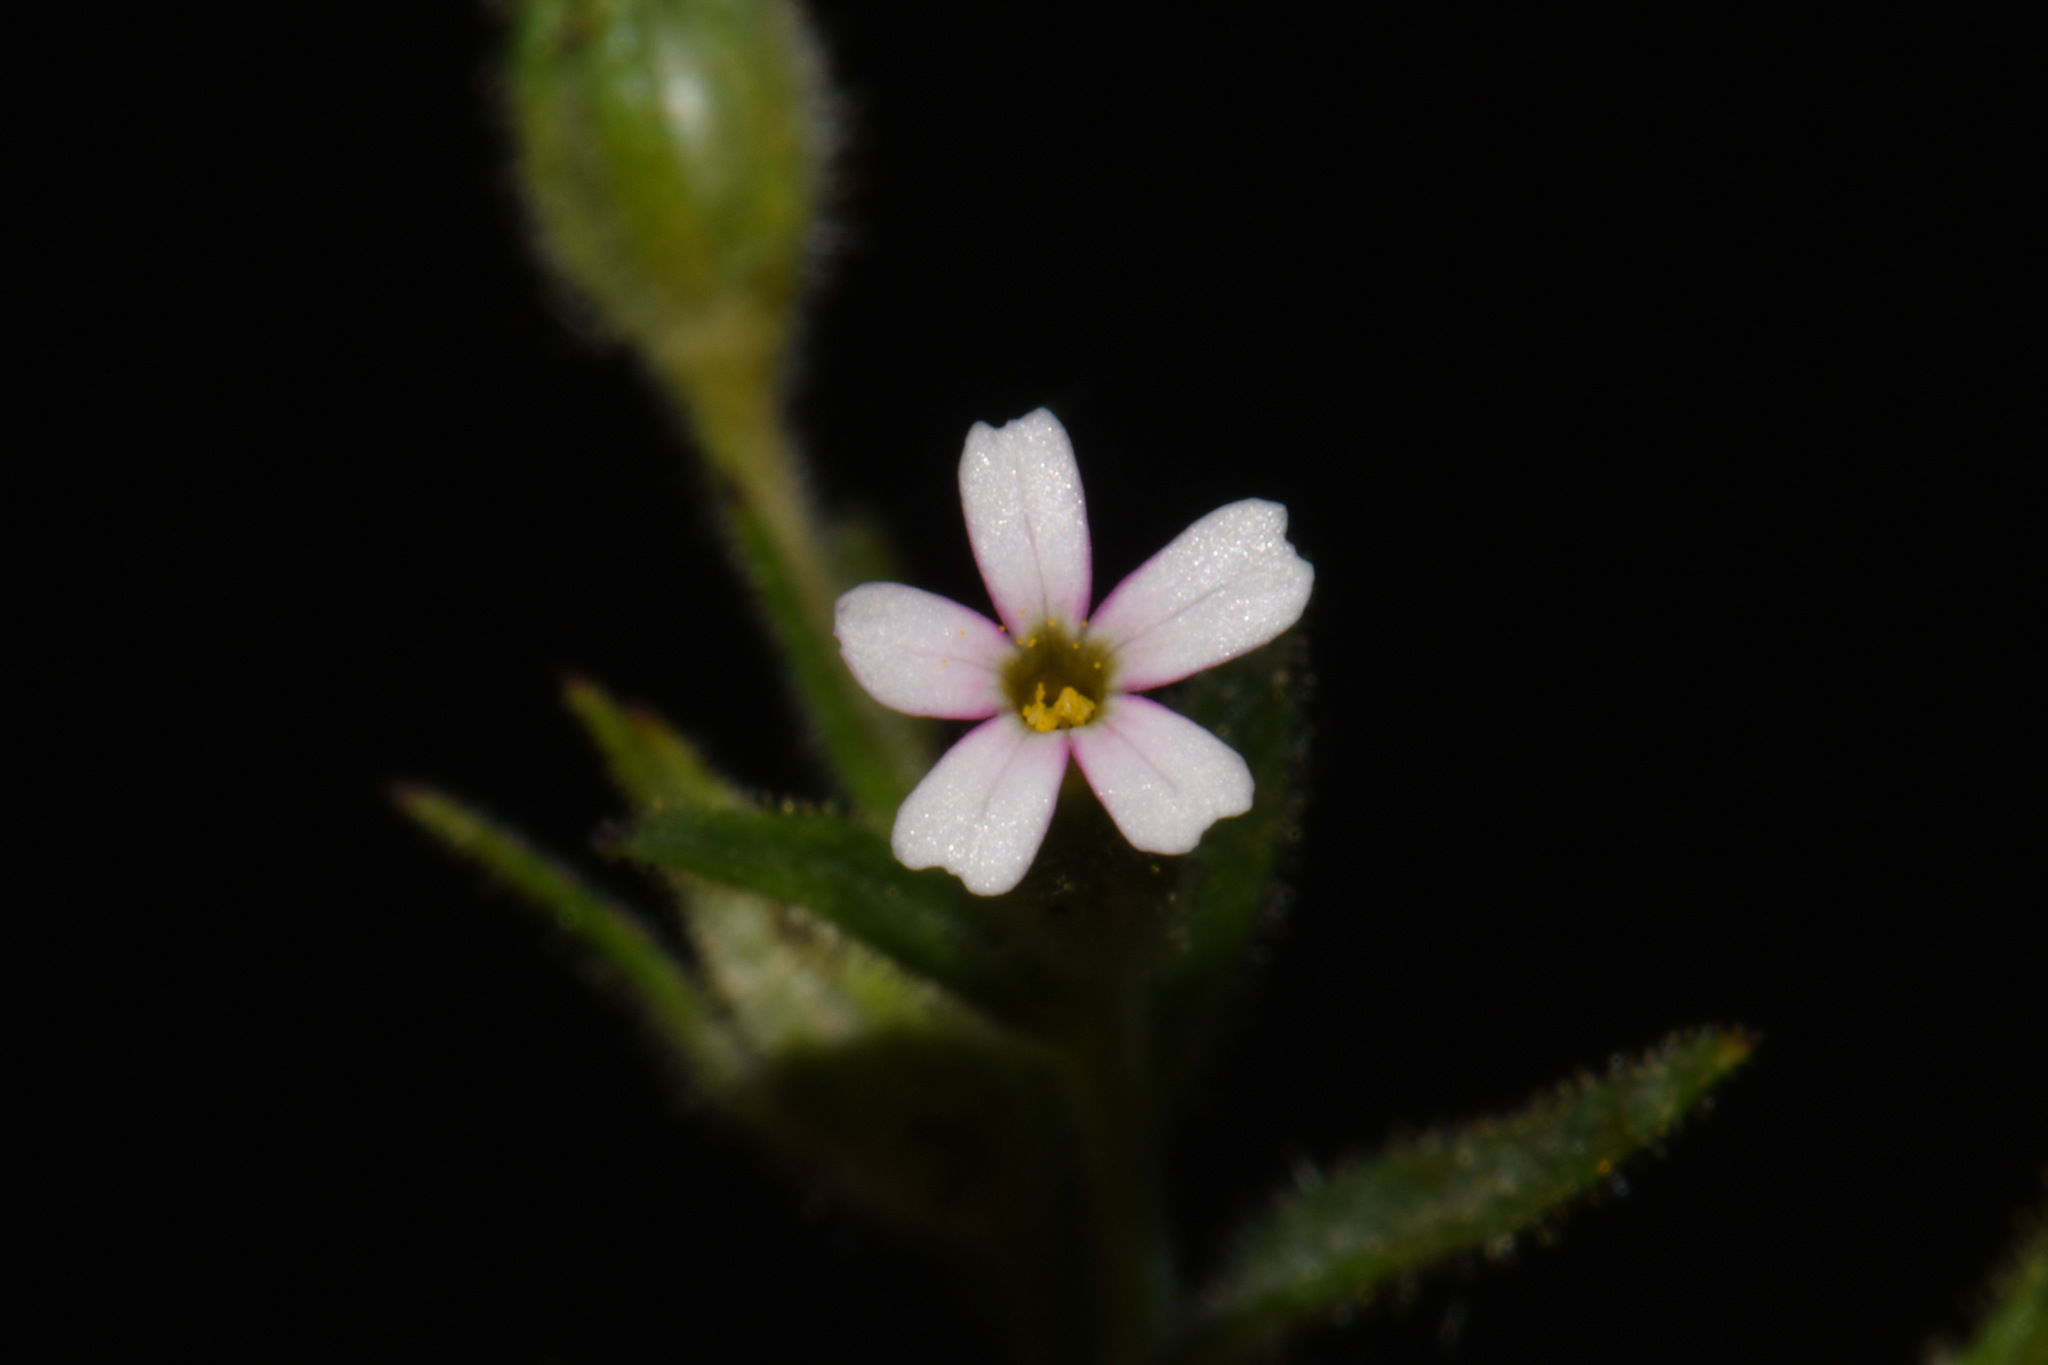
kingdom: Plantae
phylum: Tracheophyta
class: Magnoliopsida
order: Ericales
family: Polemoniaceae
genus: Phlox
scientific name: Phlox gracilis
